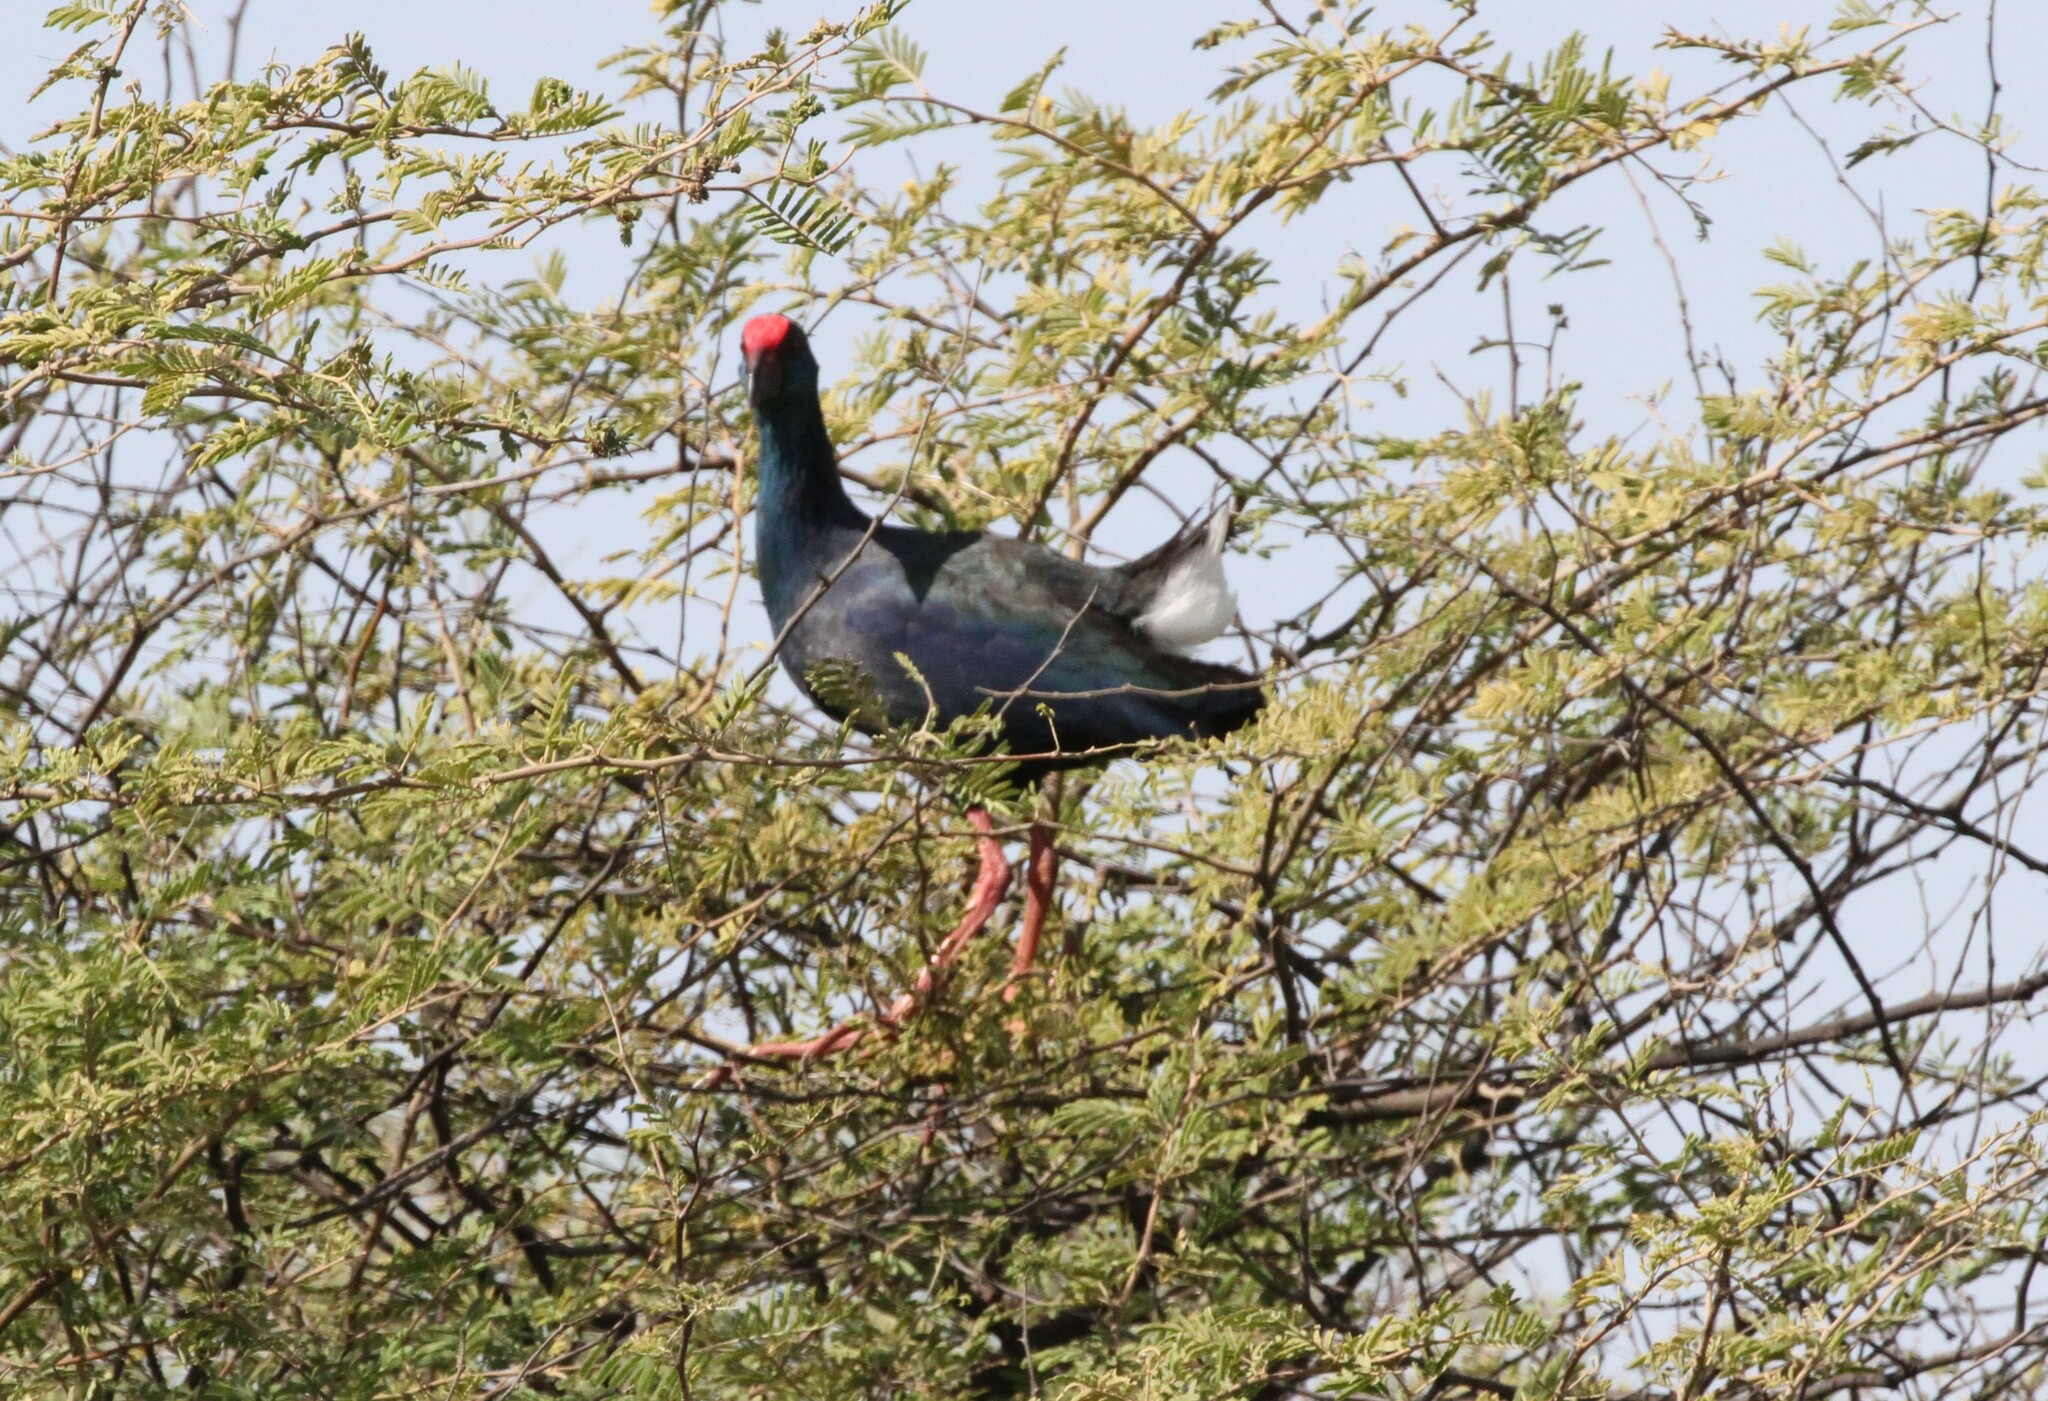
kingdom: Animalia
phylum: Chordata
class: Aves
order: Gruiformes
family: Rallidae
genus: Porphyrio
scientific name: Porphyrio porphyrio
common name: Purple swamphen
